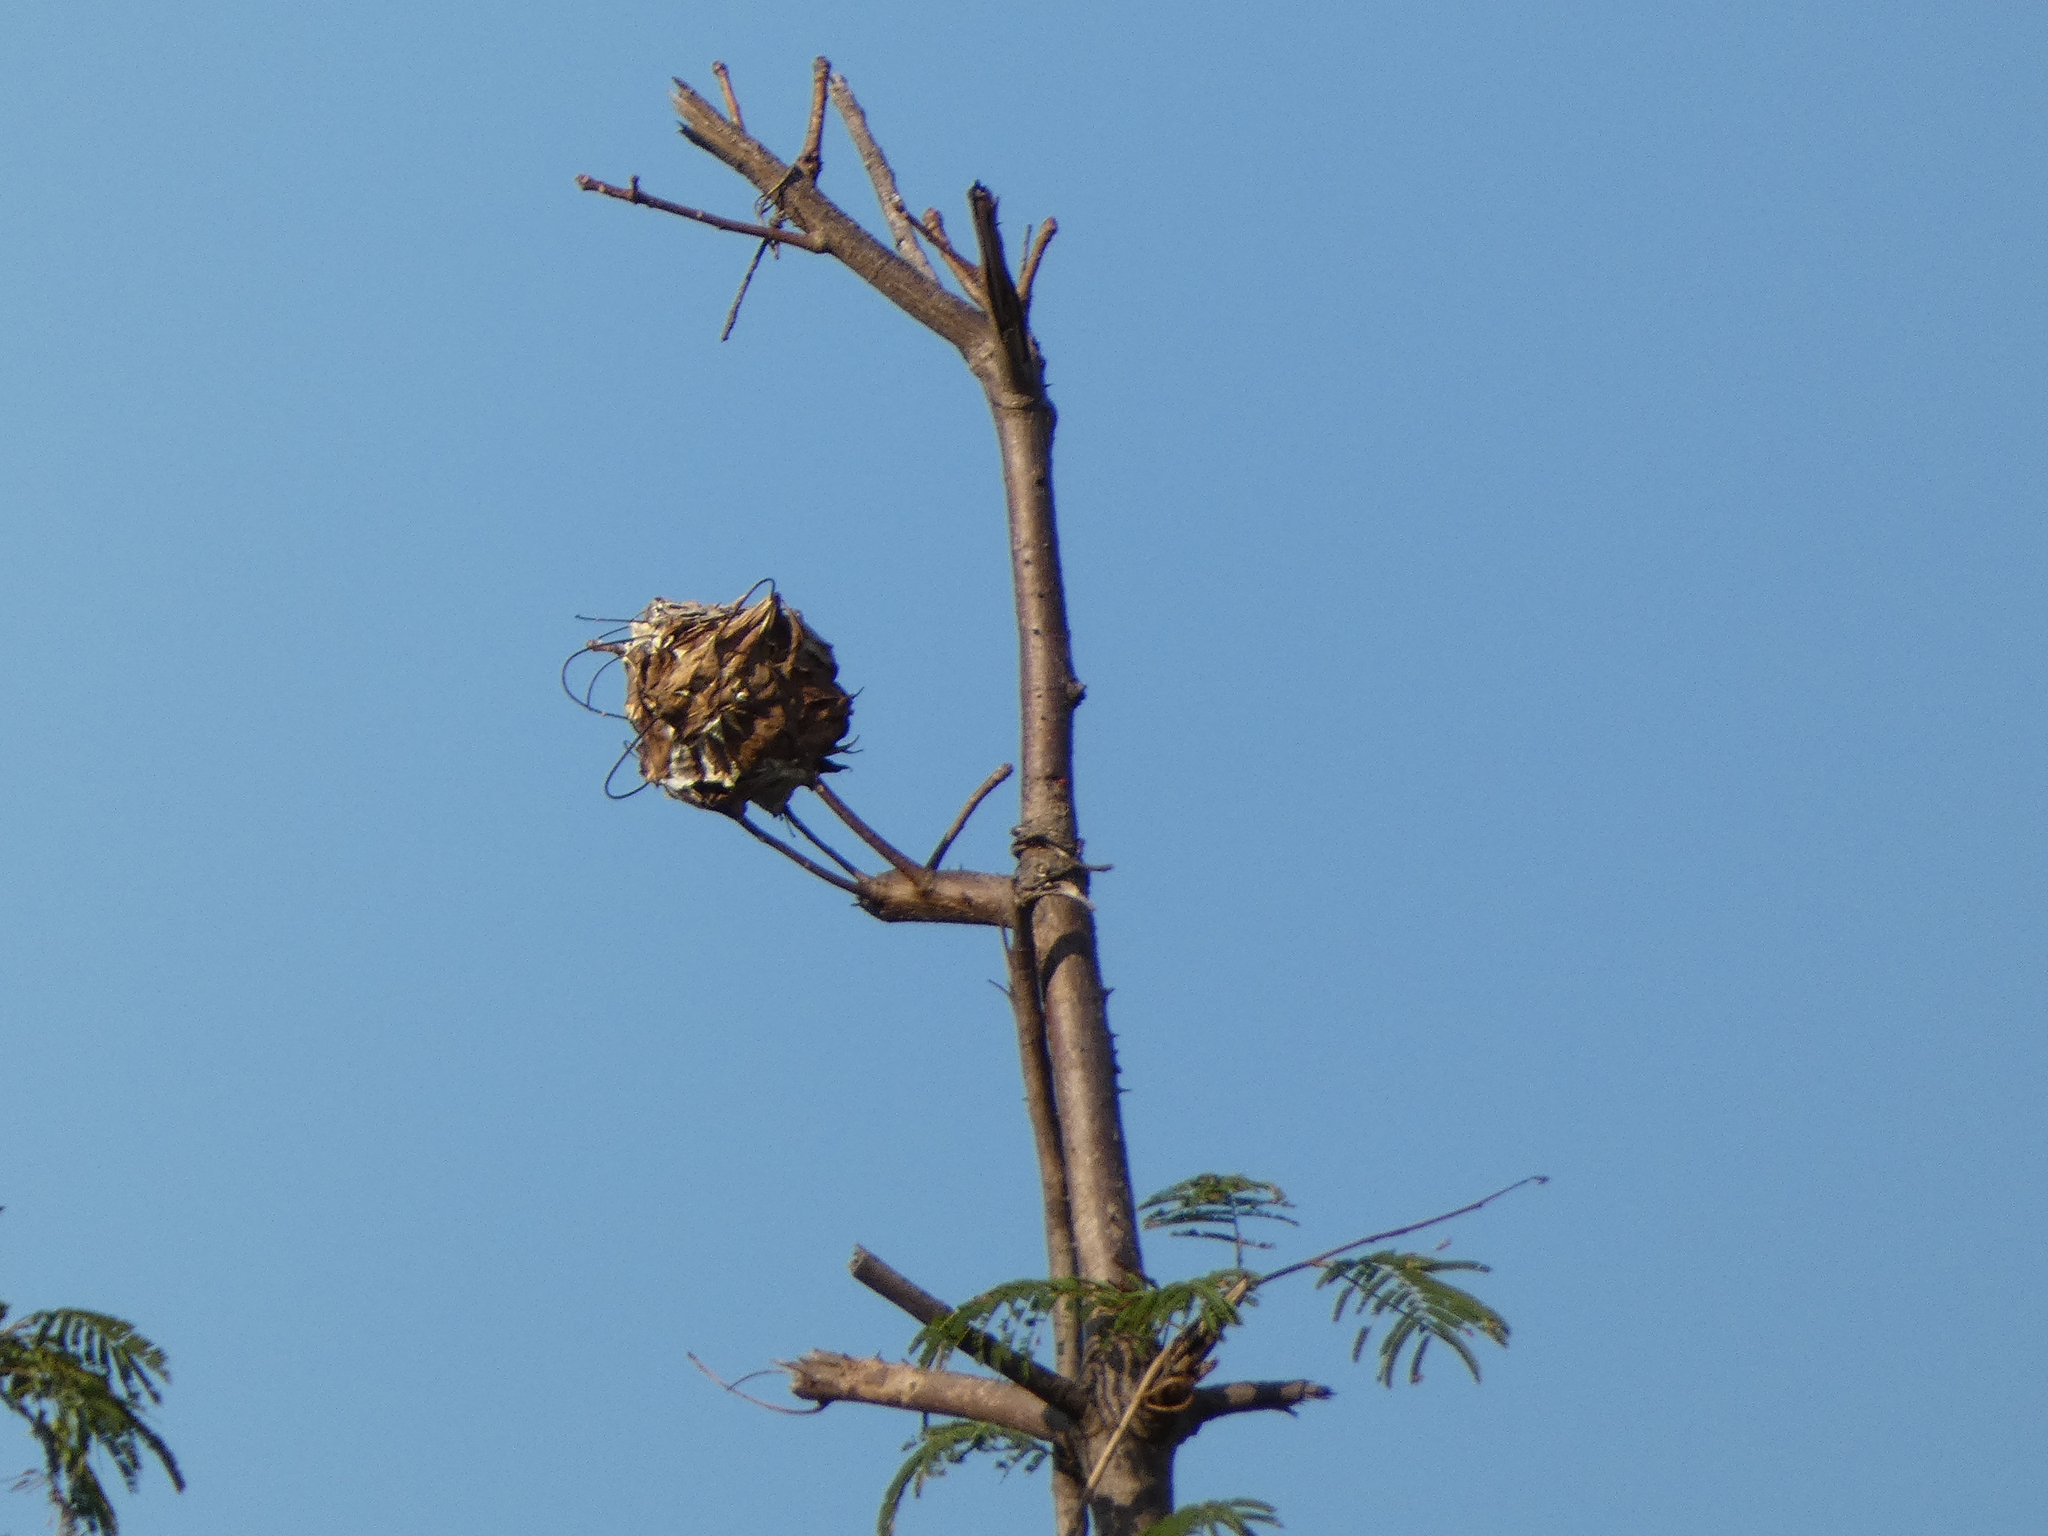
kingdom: Animalia
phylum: Arthropoda
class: Insecta
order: Hymenoptera
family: Formicidae
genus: Oecophylla
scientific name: Oecophylla smaragdina
